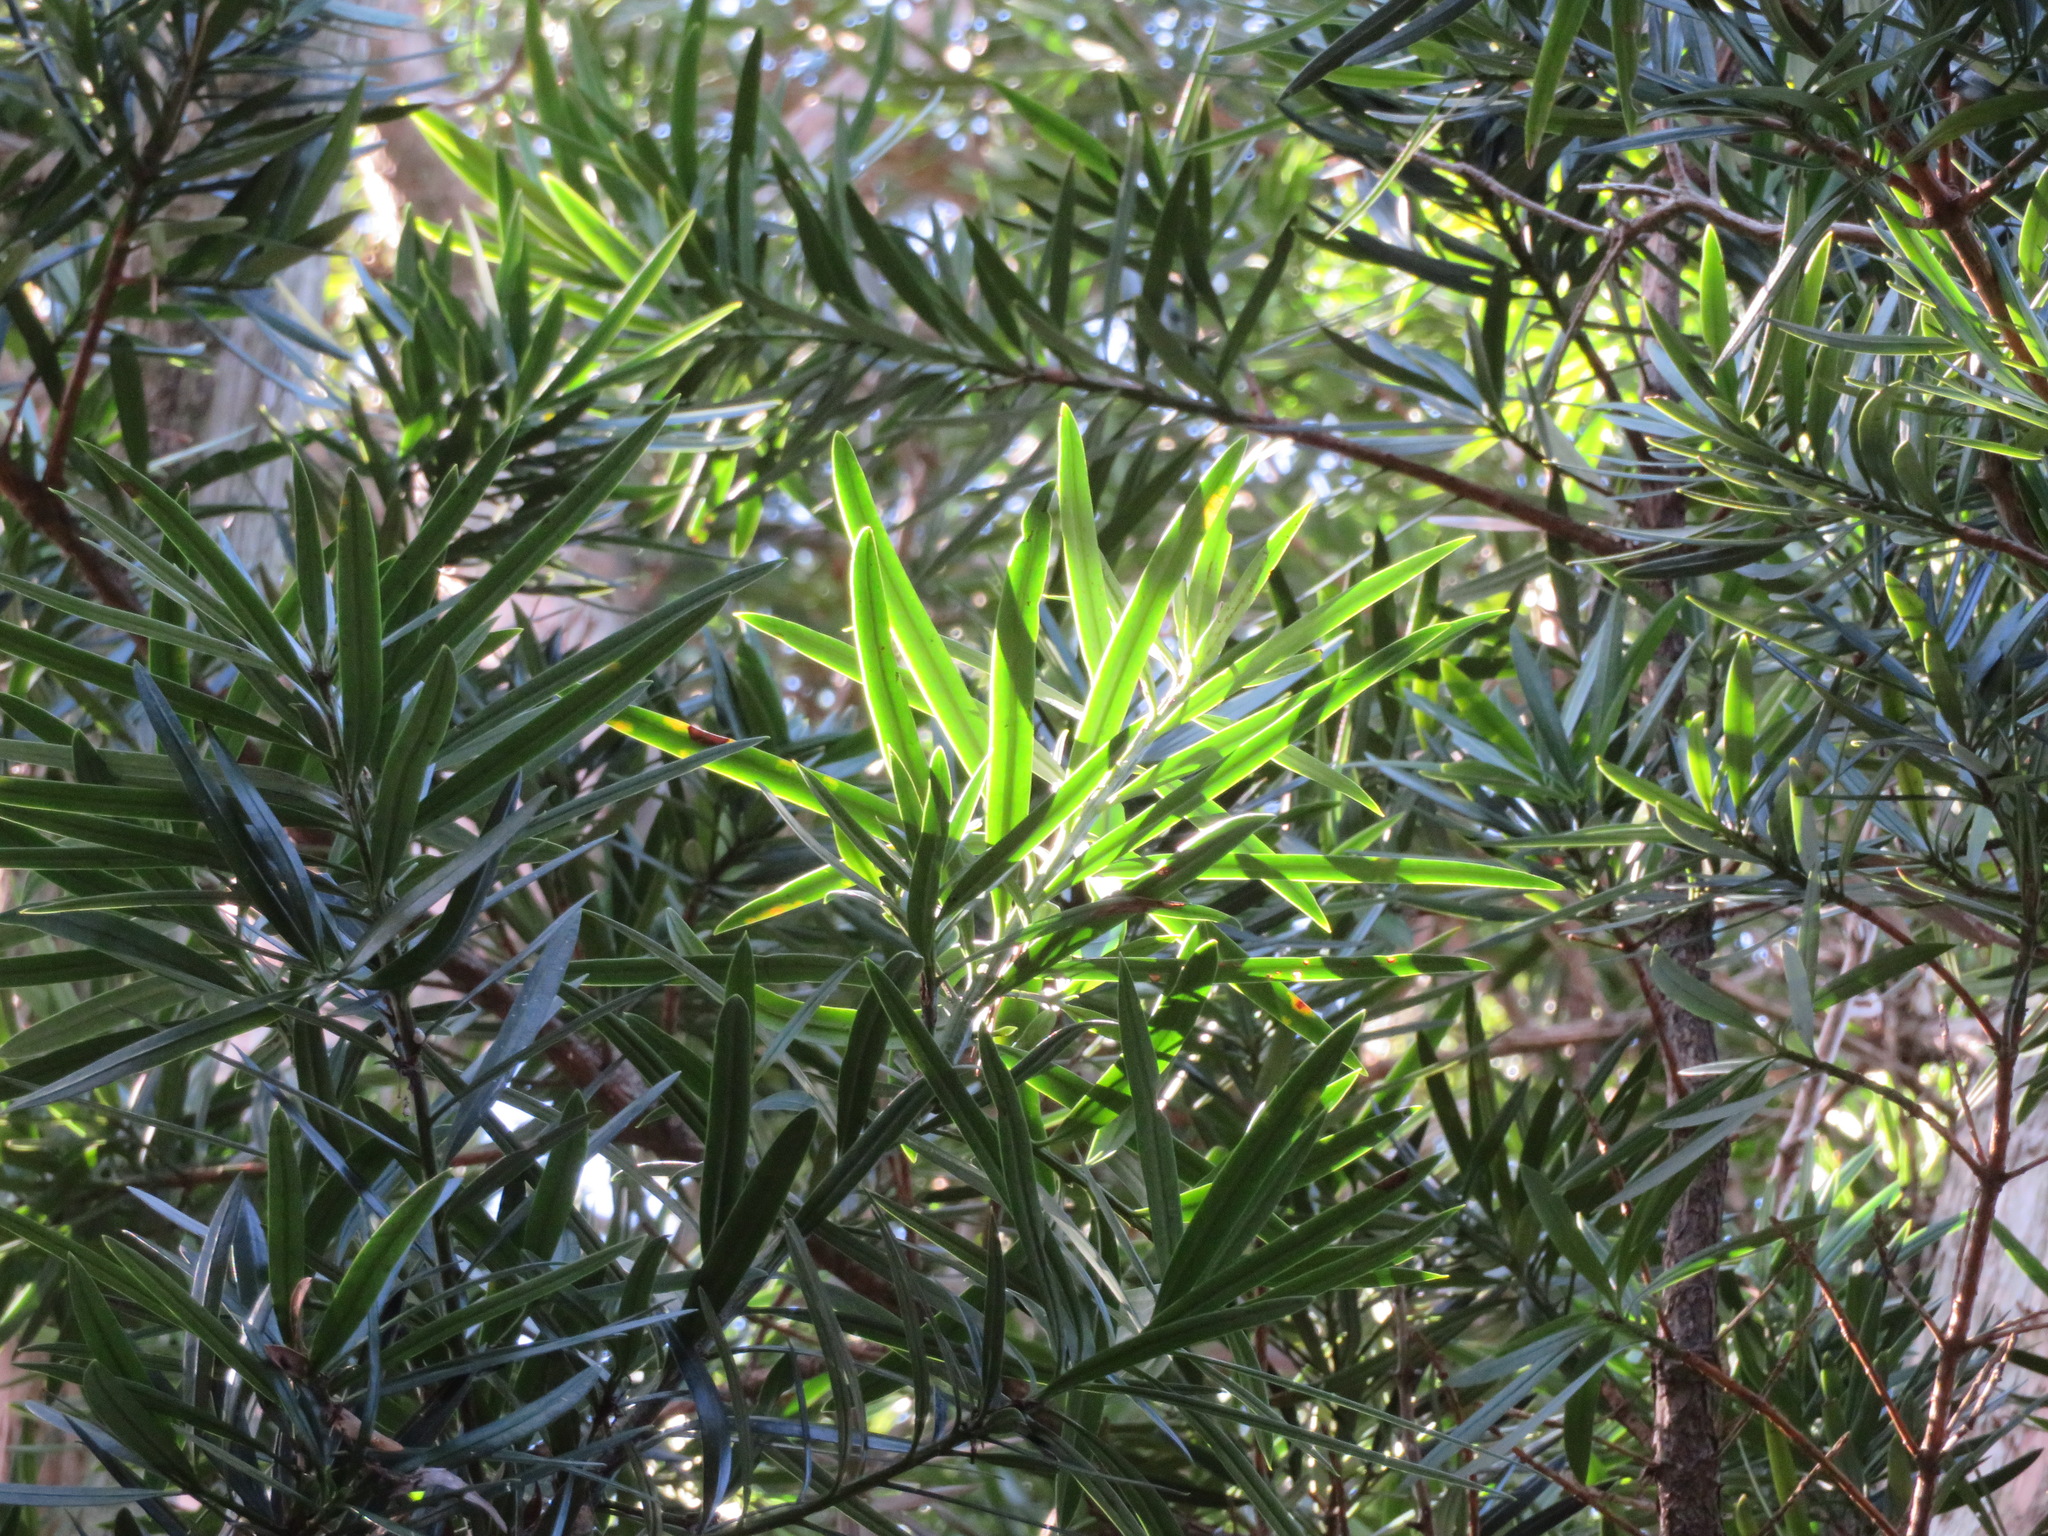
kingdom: Plantae
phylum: Tracheophyta
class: Pinopsida
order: Pinales
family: Podocarpaceae
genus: Podocarpus
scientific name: Podocarpus macrophyllus
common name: Japanese yew
